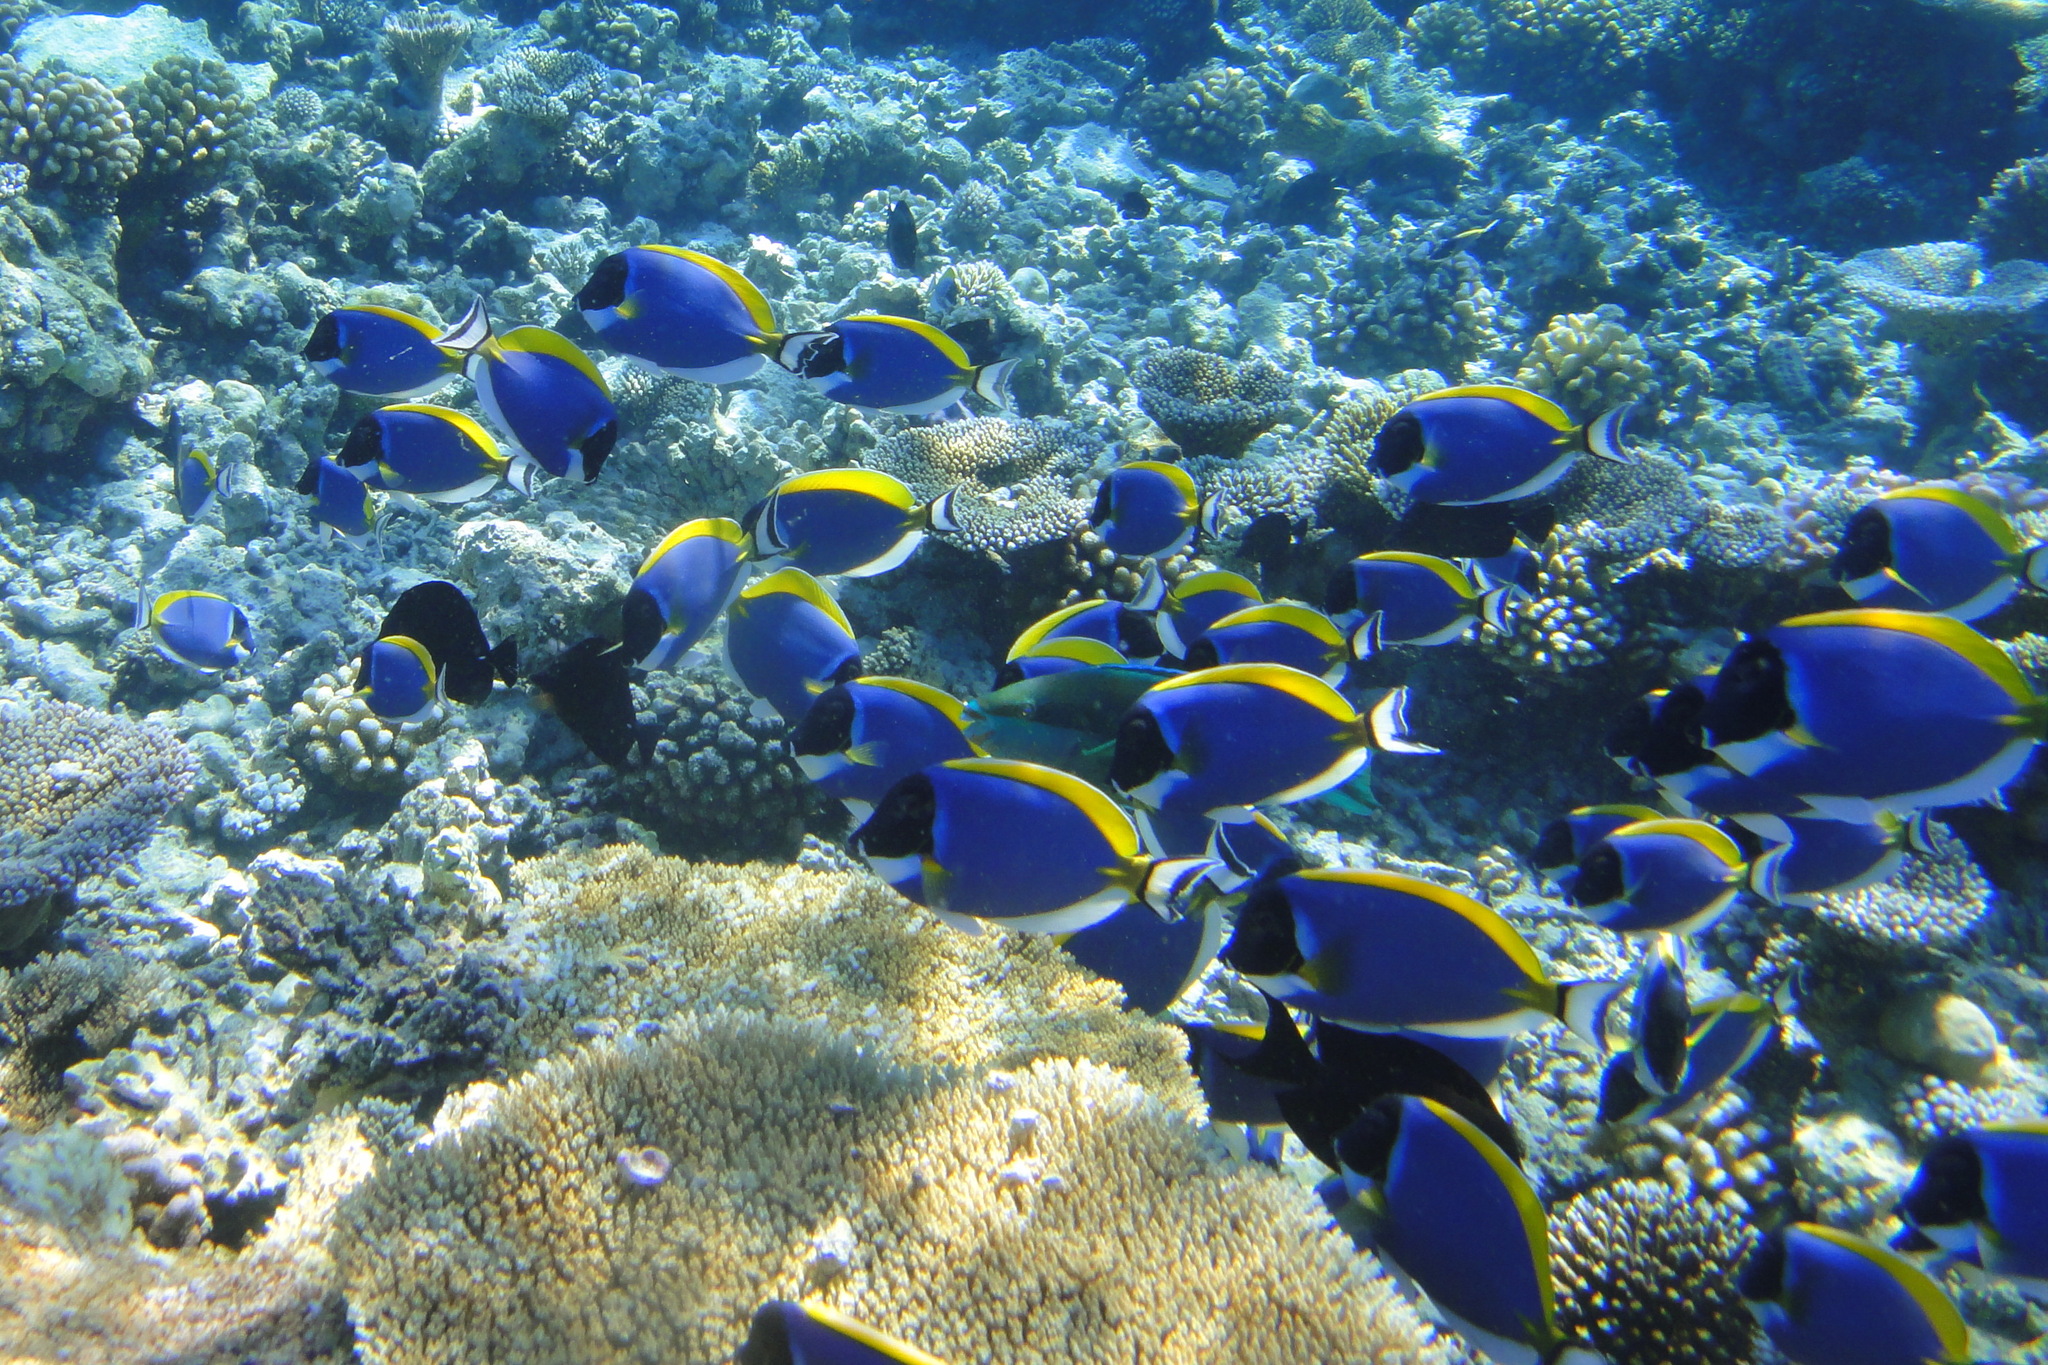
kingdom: Animalia
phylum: Chordata
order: Perciformes
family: Acanthuridae
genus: Acanthurus
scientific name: Acanthurus leucosternon
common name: Blue surgeonfish
